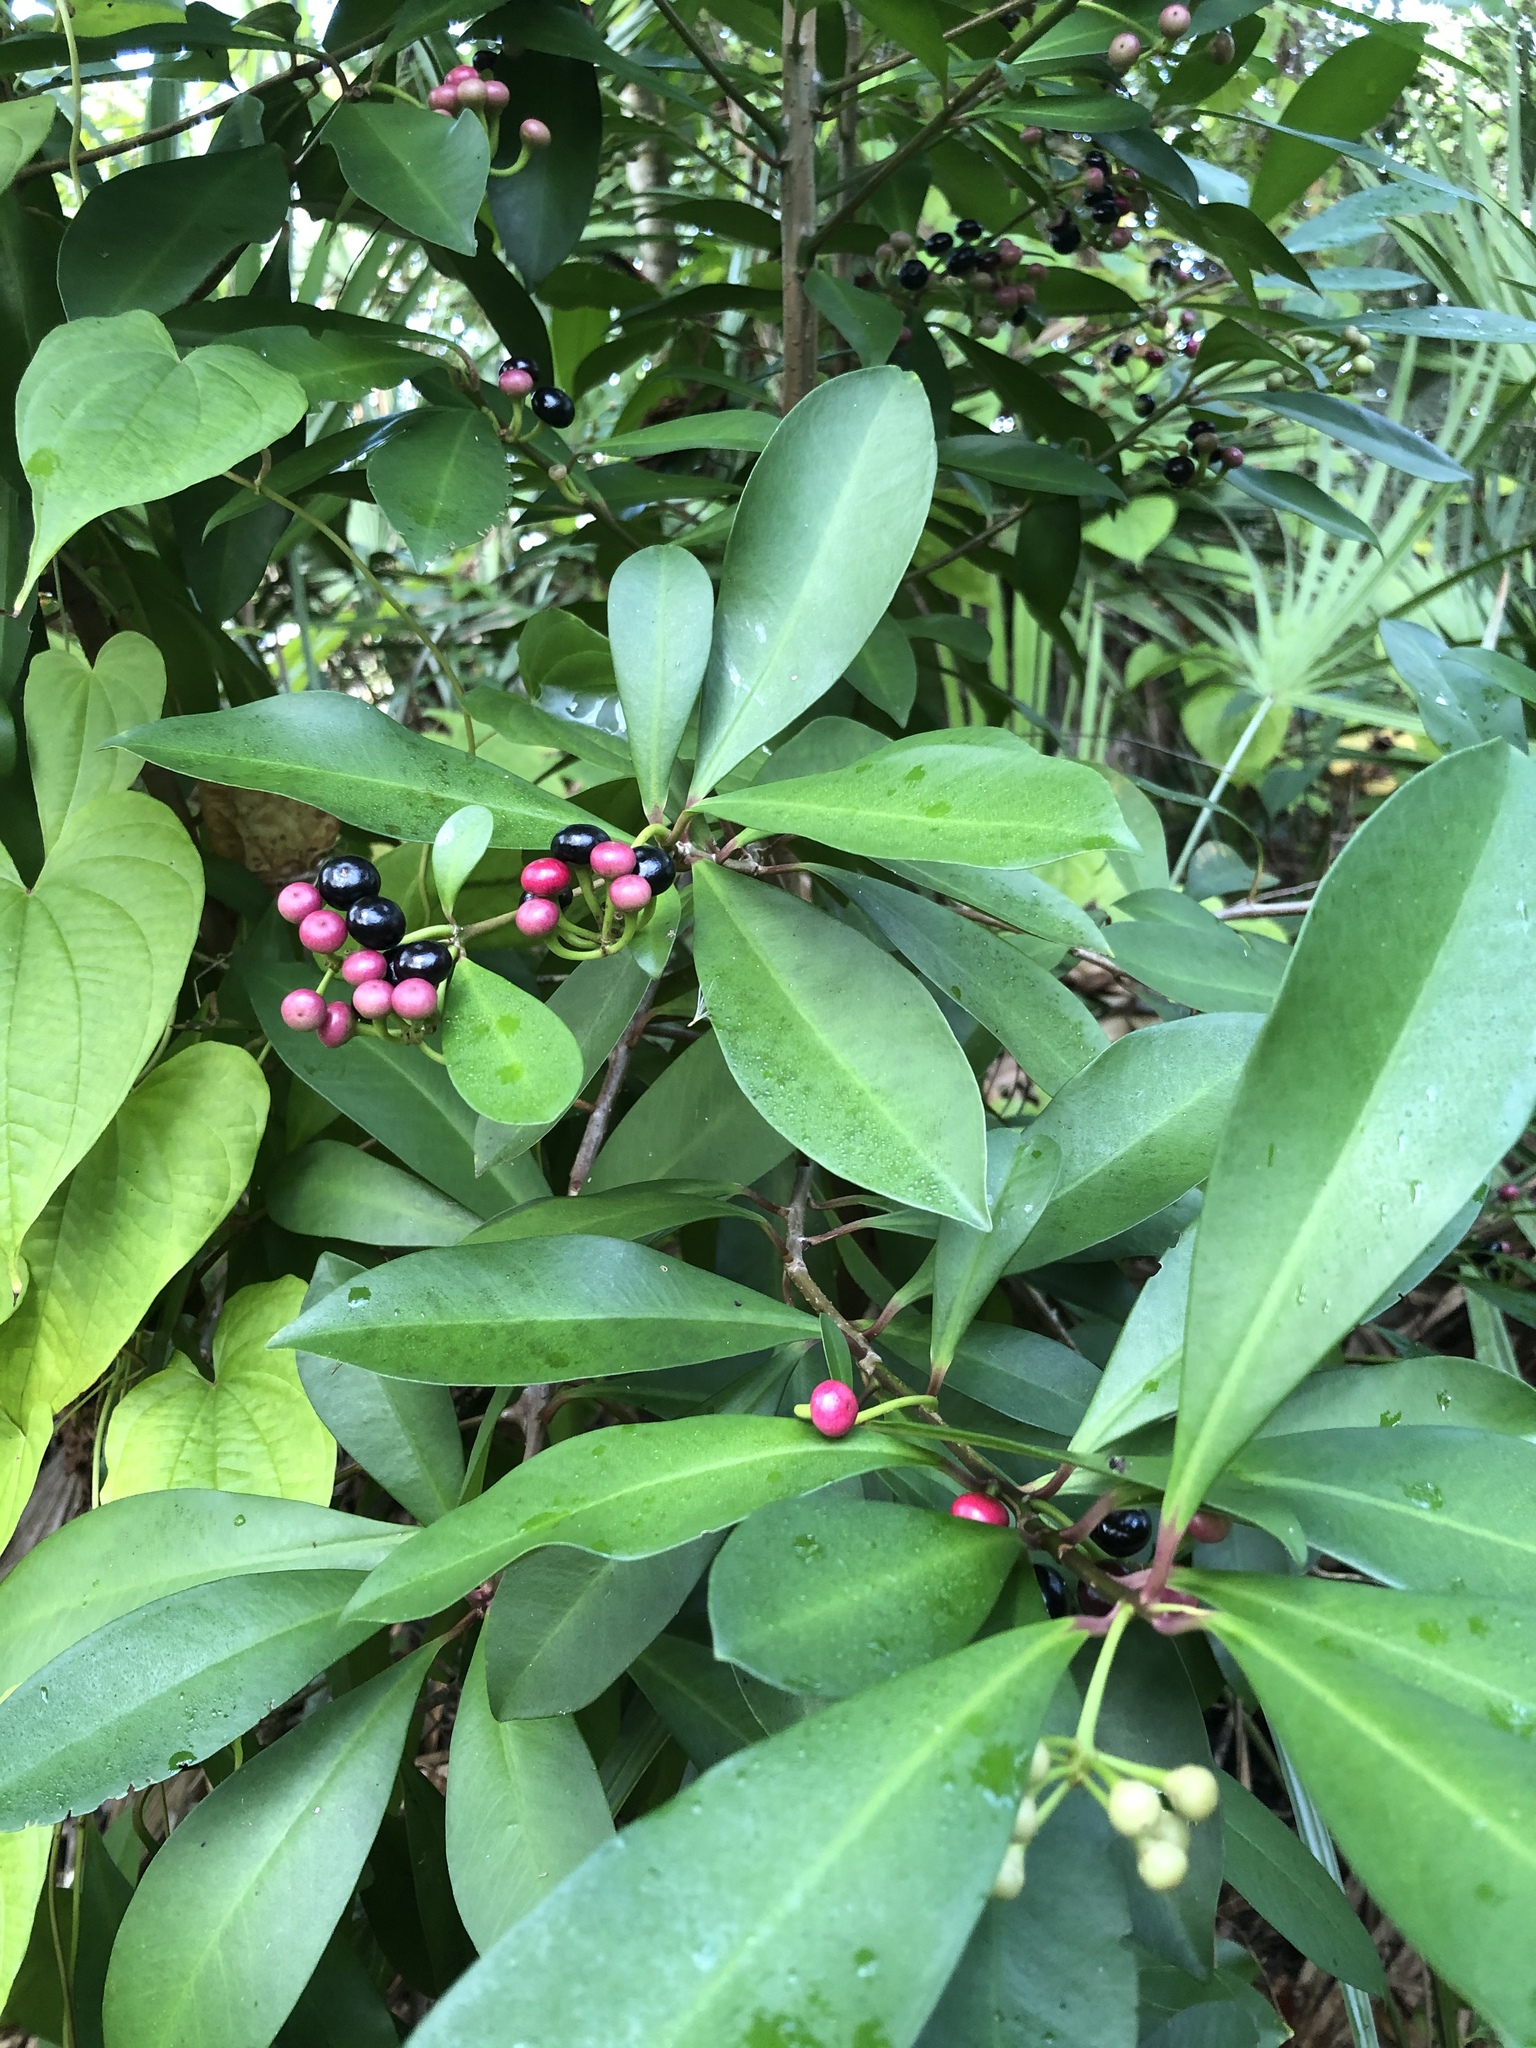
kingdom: Plantae
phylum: Tracheophyta
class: Magnoliopsida
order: Ericales
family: Primulaceae
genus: Ardisia
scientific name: Ardisia elliptica
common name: Shoebutton
